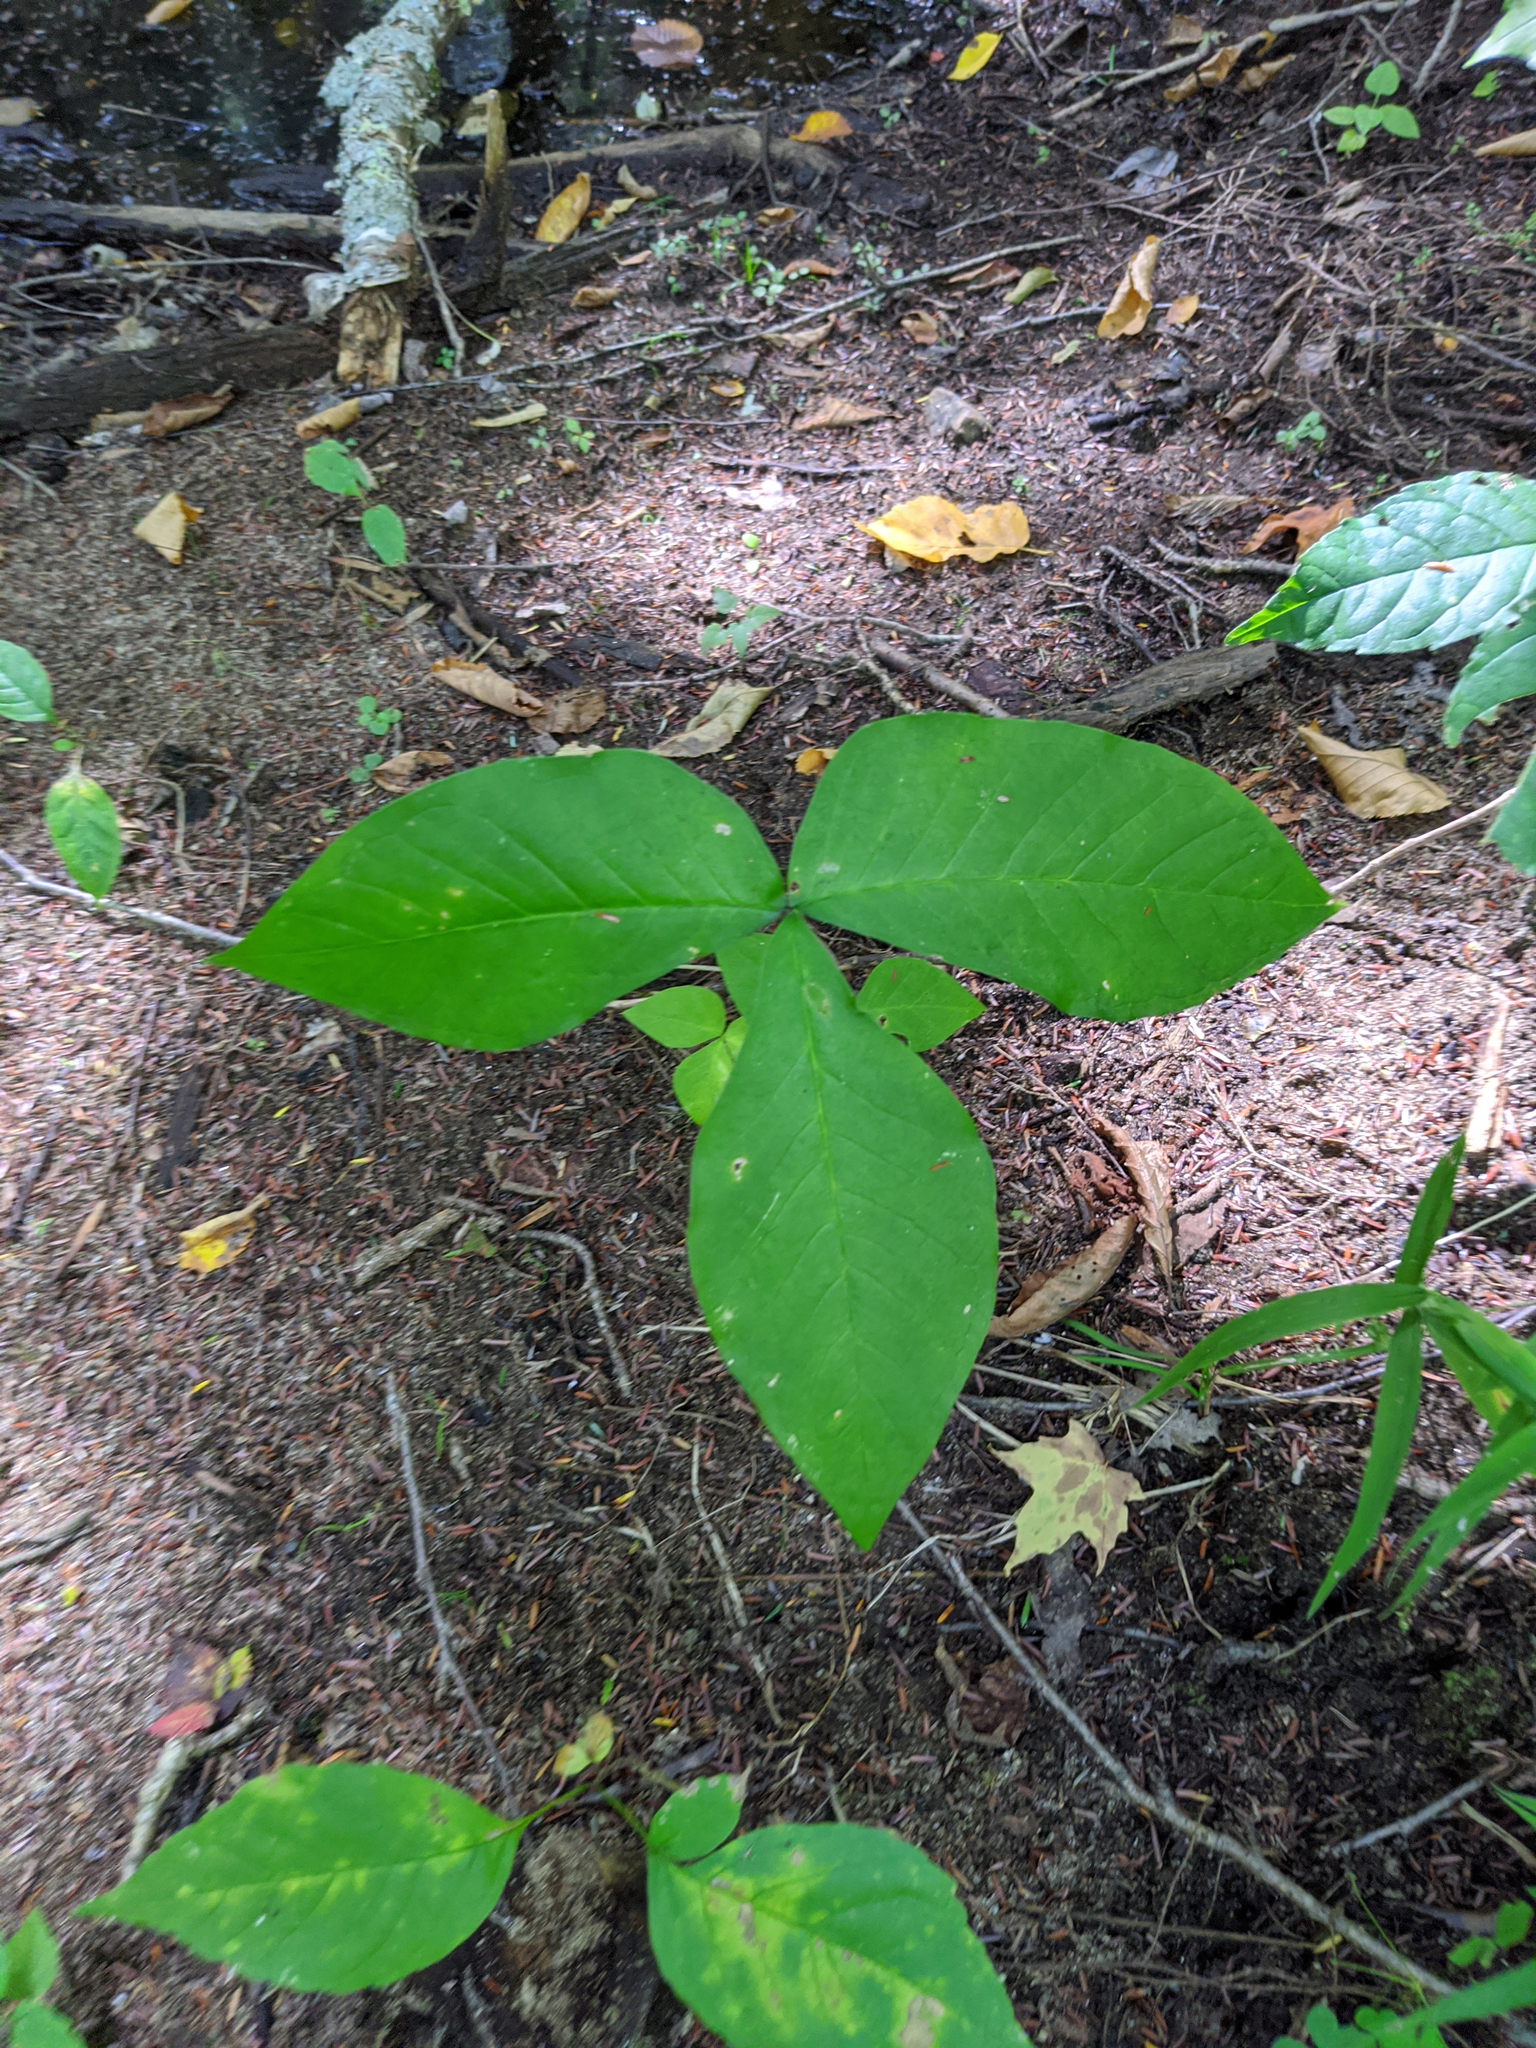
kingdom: Plantae
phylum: Tracheophyta
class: Liliopsida
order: Alismatales
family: Araceae
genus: Arisaema
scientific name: Arisaema triphyllum
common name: Jack-in-the-pulpit
